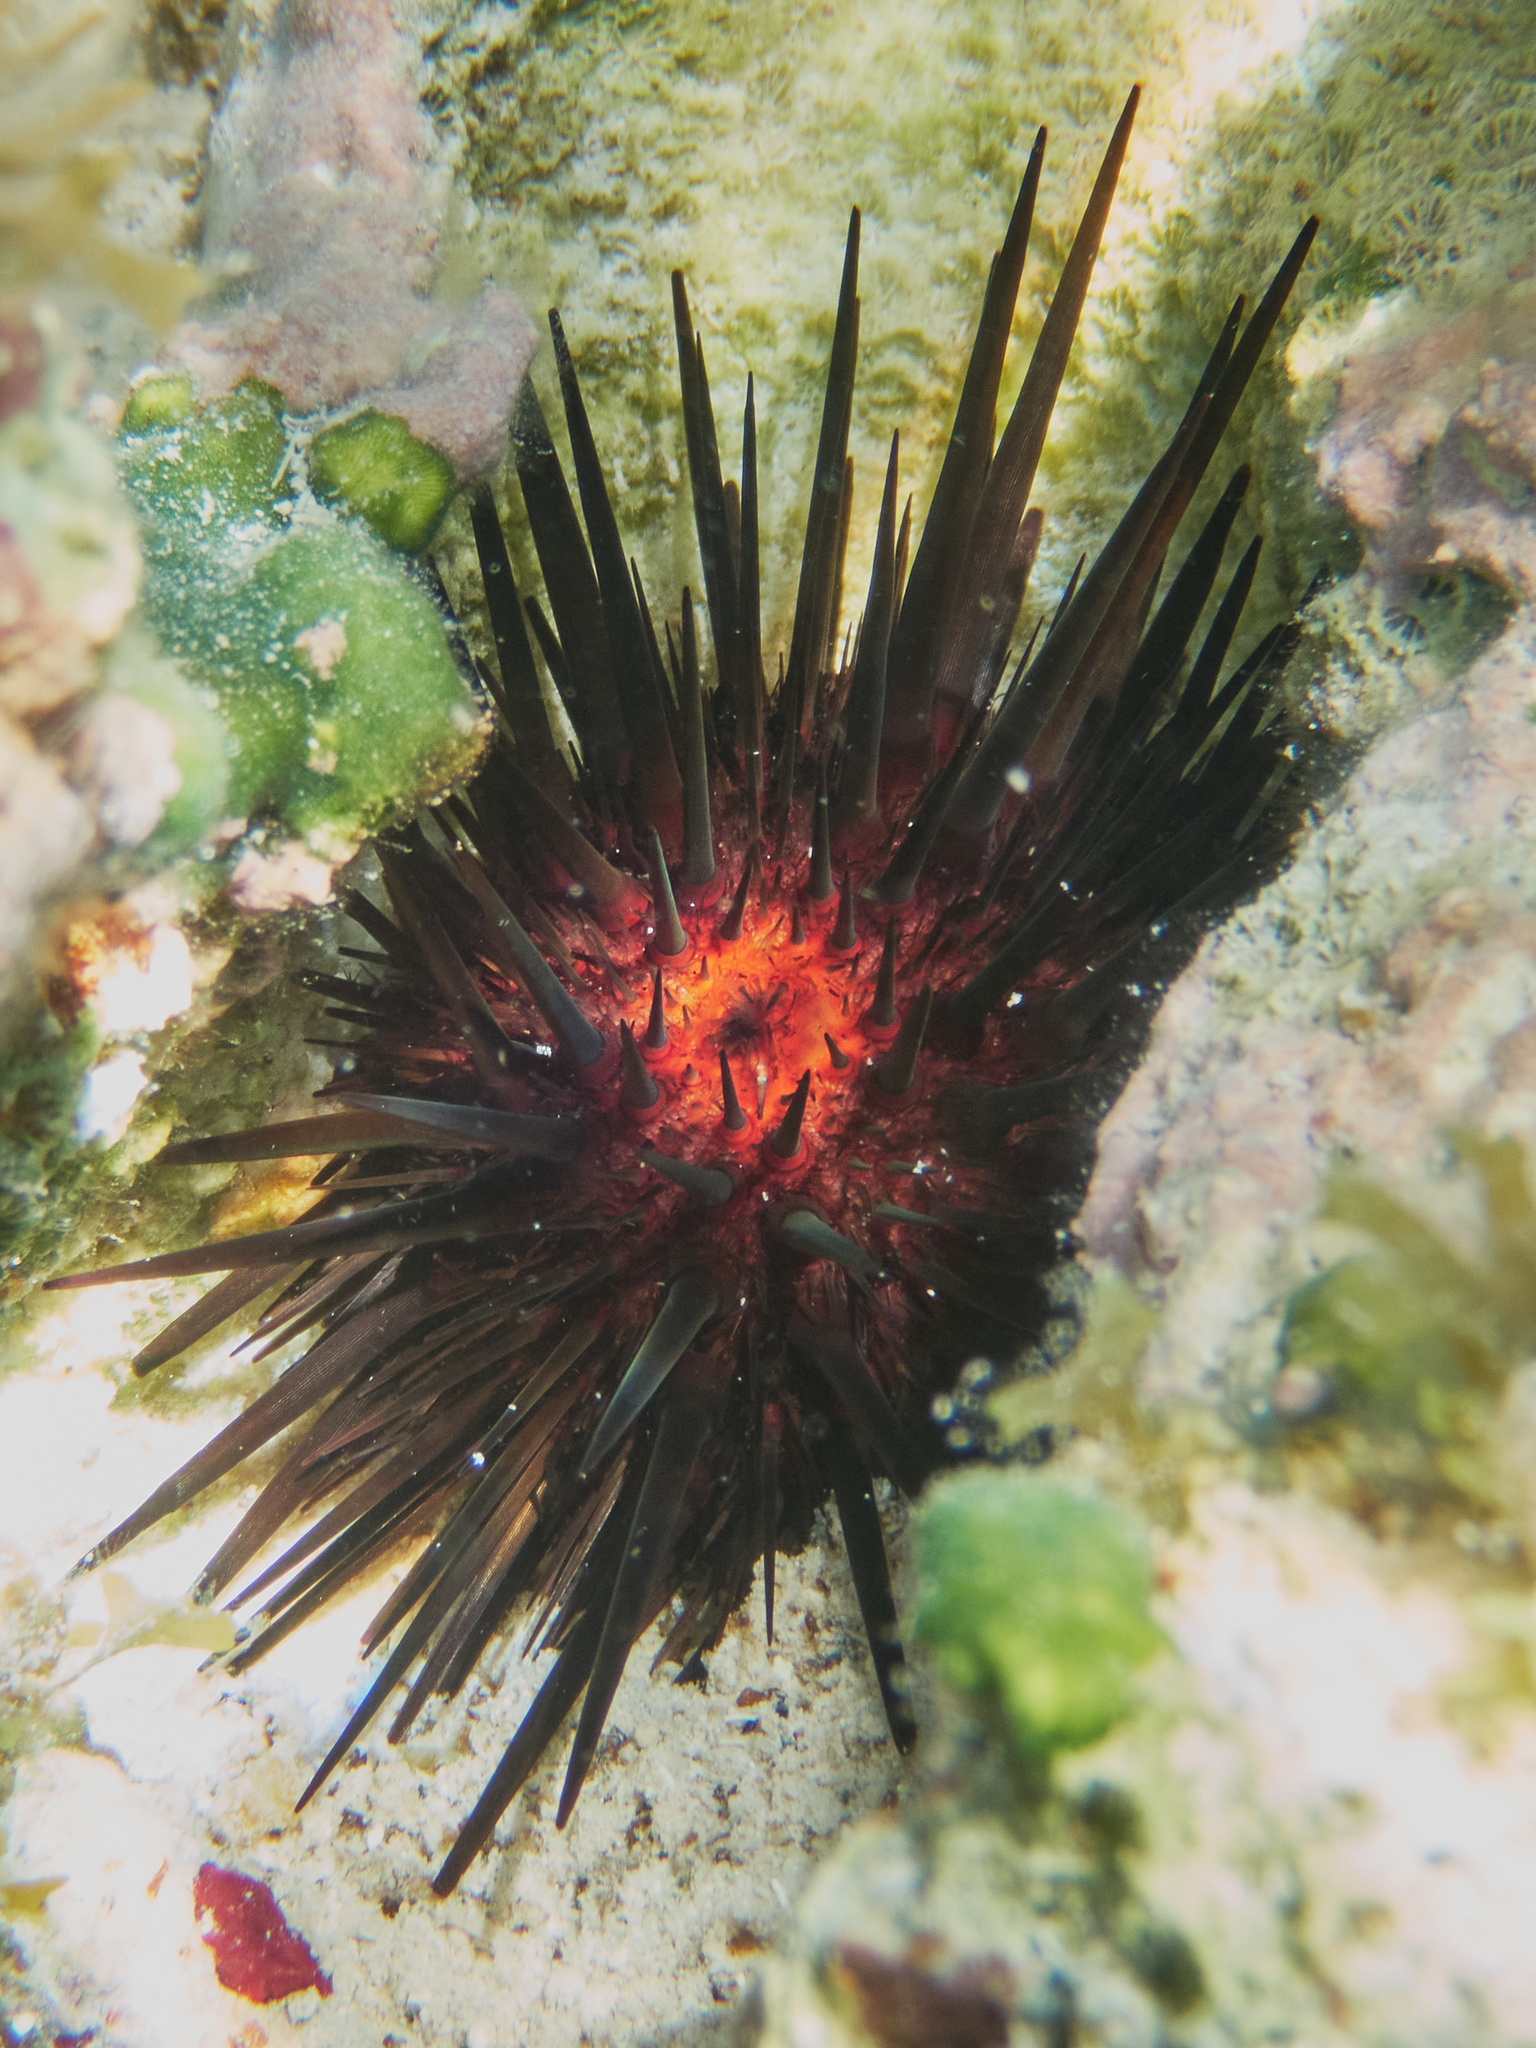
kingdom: Animalia
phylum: Echinodermata
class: Echinoidea
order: Camarodonta
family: Echinometridae
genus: Echinometra
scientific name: Echinometra lucunter
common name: Rock urchin
